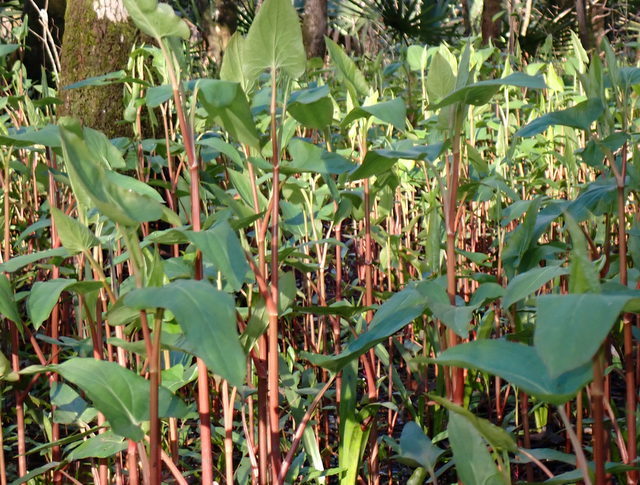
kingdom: Plantae
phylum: Tracheophyta
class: Magnoliopsida
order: Piperales
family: Saururaceae
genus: Saururus
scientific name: Saururus cernuus
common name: Lizard's-tail
